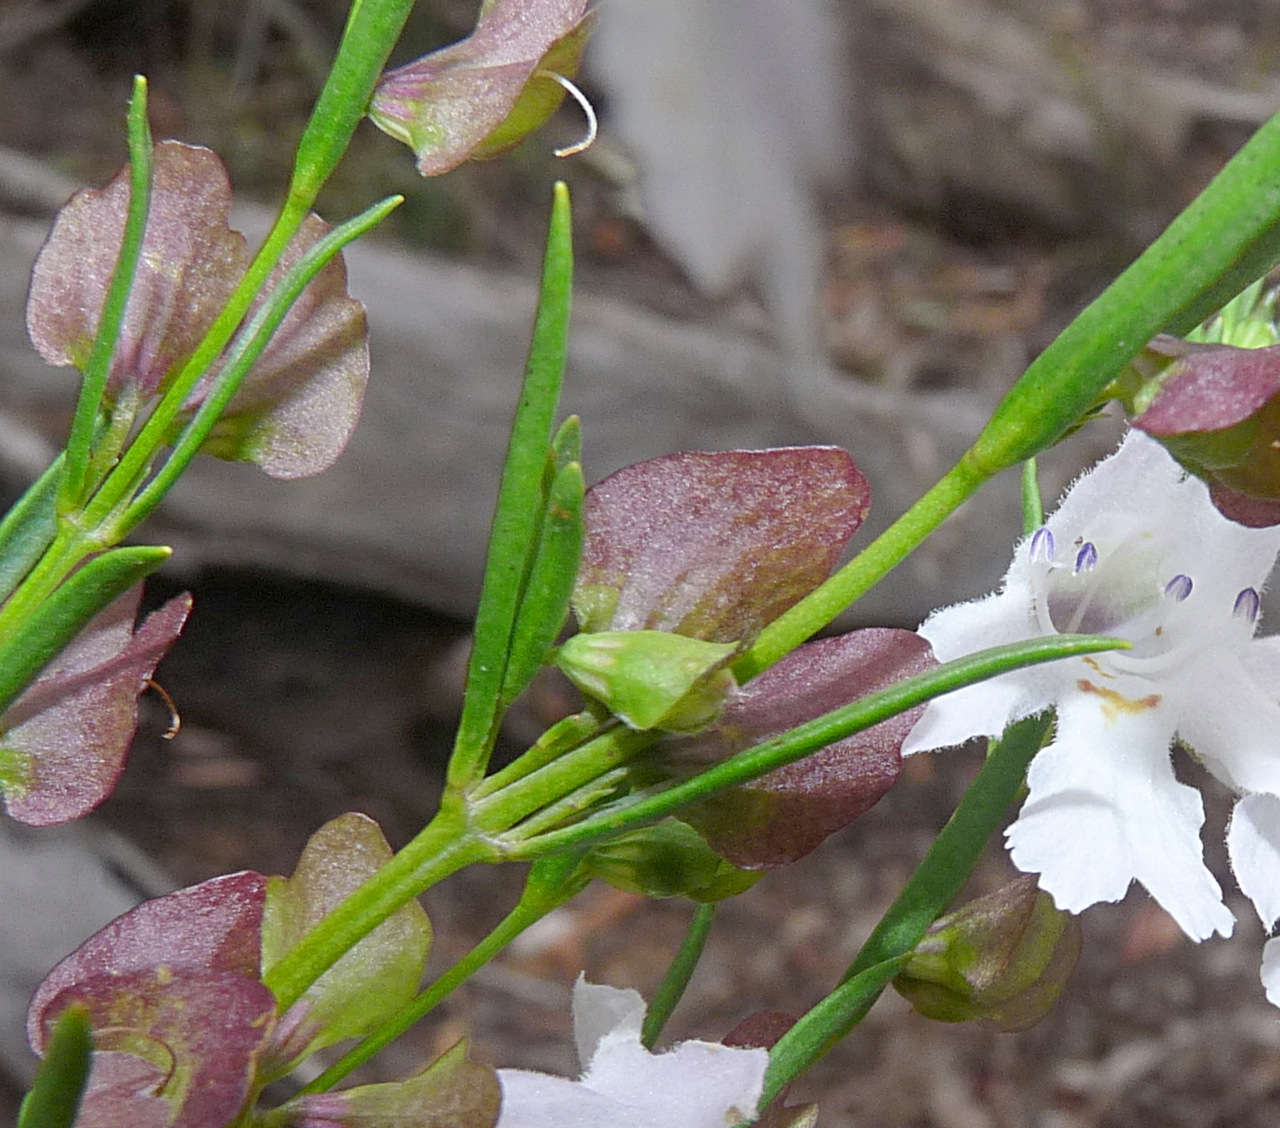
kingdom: Plantae
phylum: Tracheophyta
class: Magnoliopsida
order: Lamiales
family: Lamiaceae
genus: Prostanthera
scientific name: Prostanthera nivea
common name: Snowy mintbush
